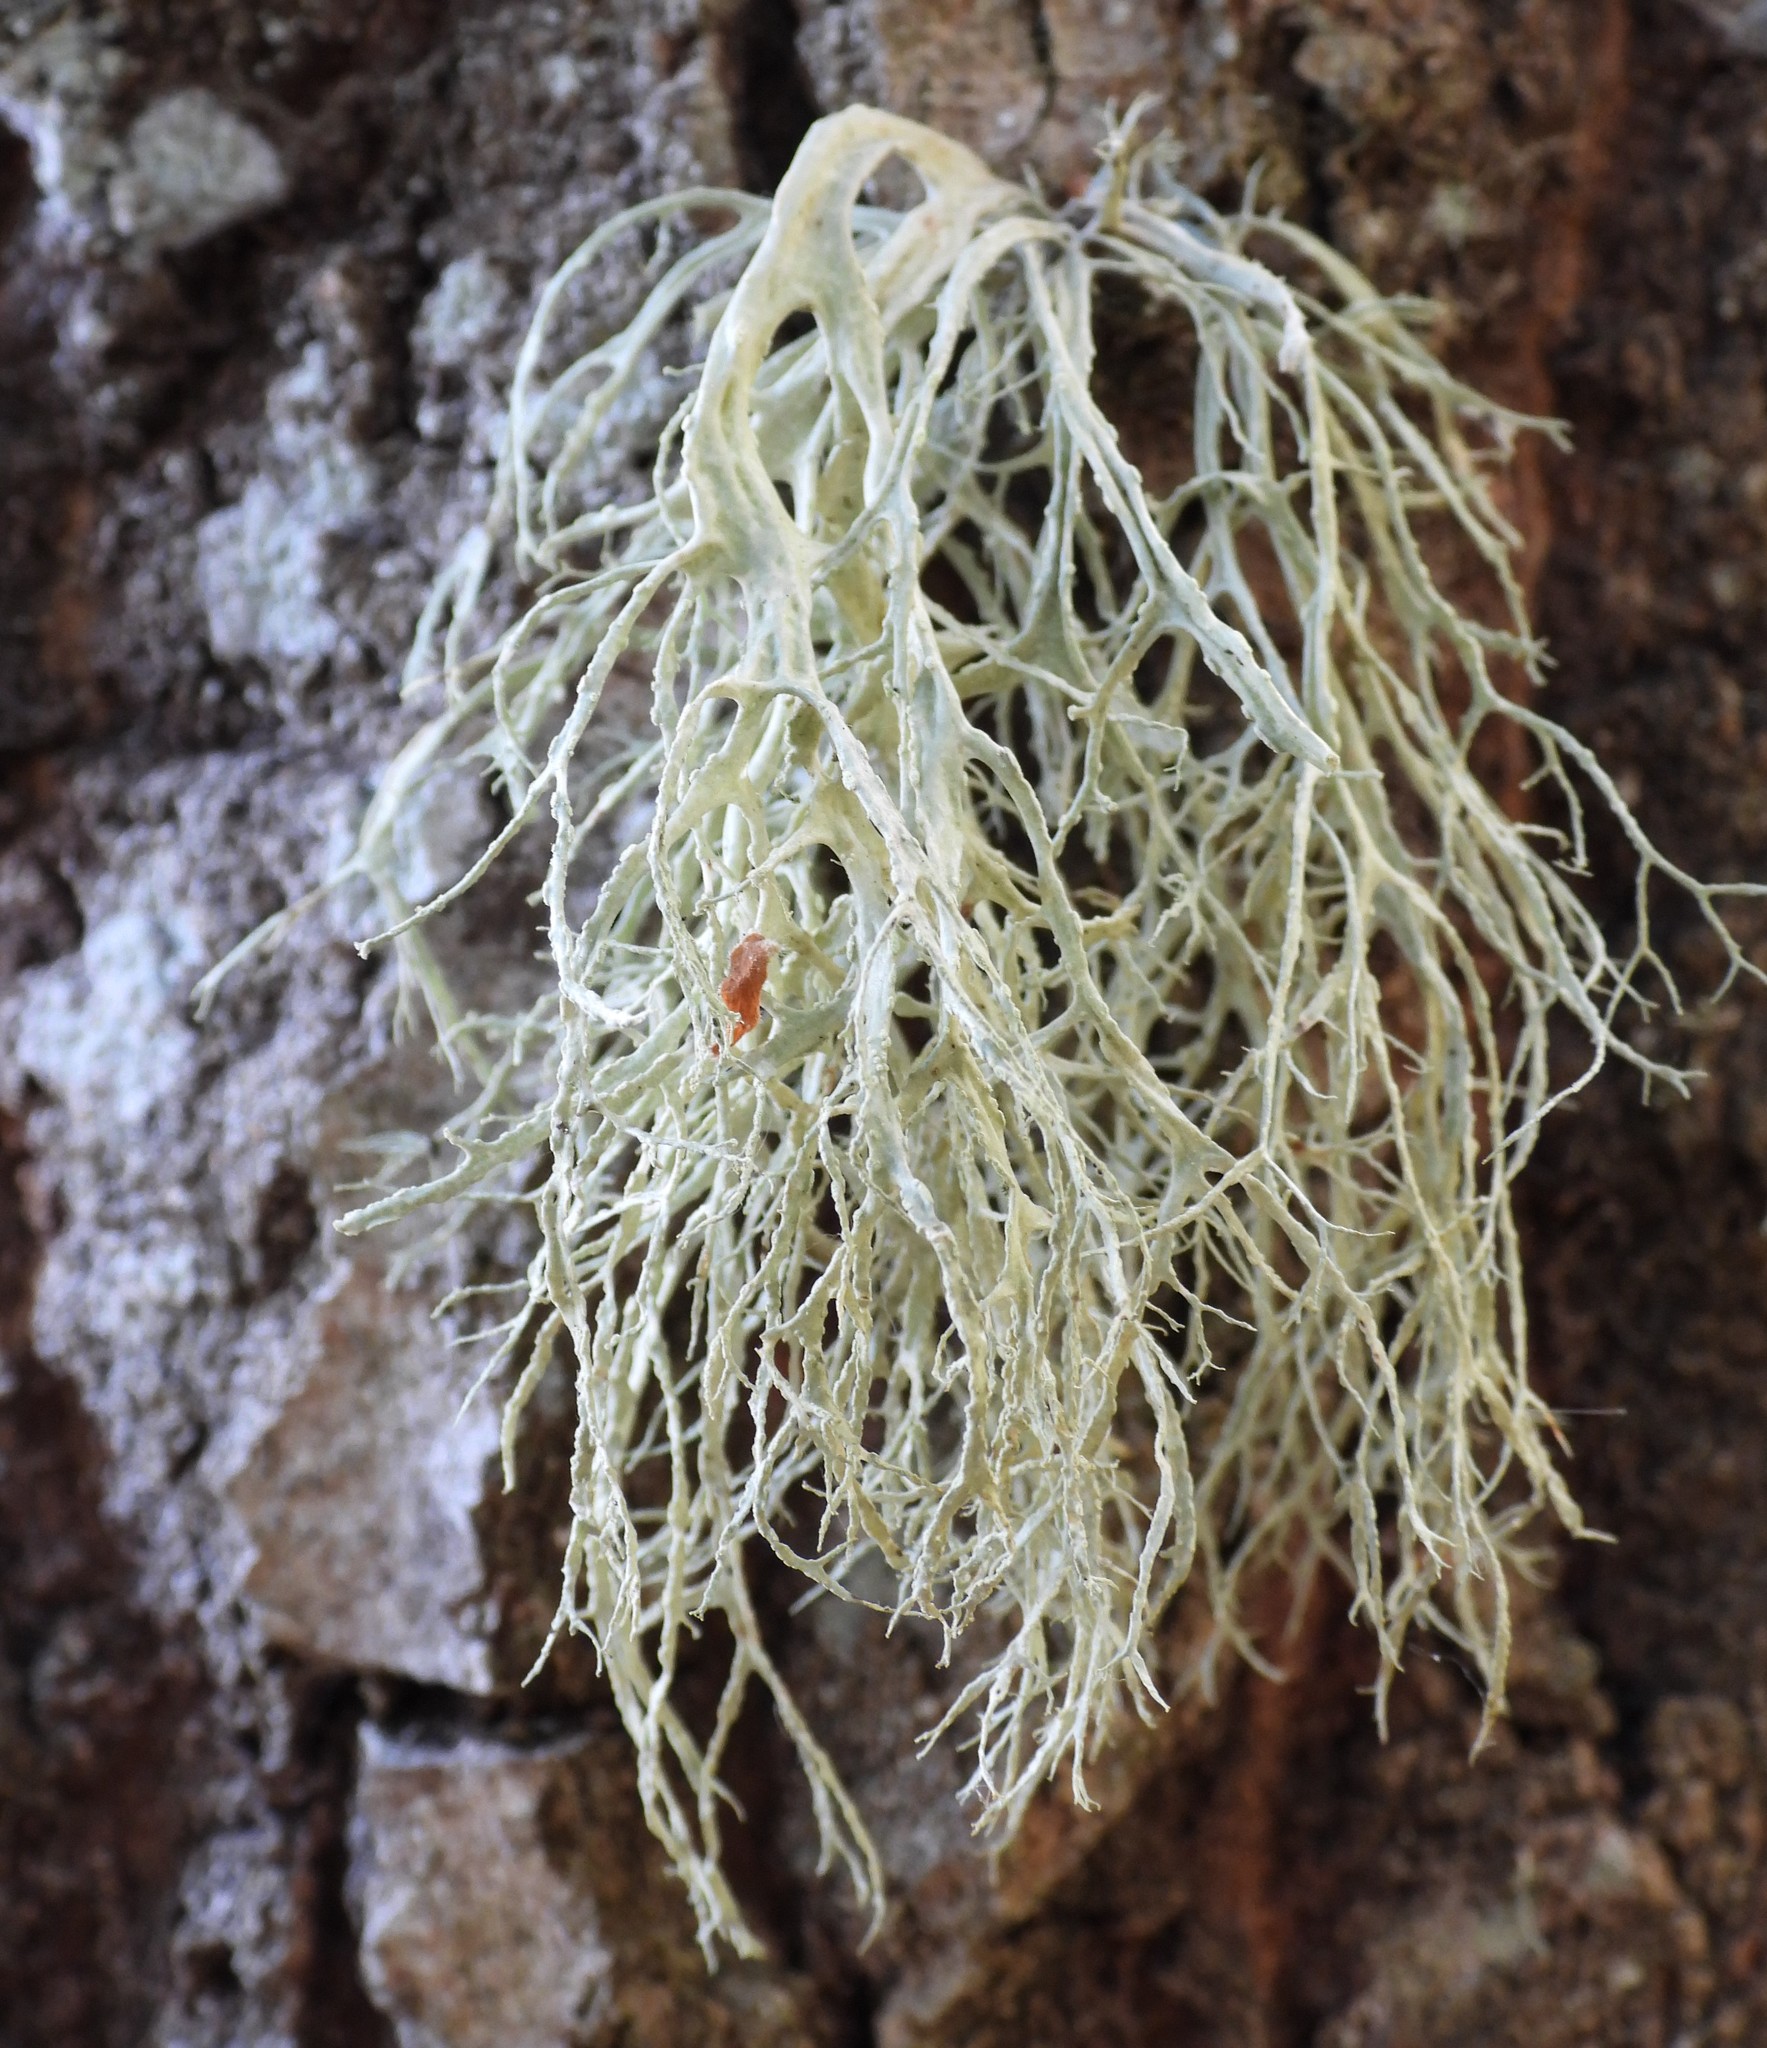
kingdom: Fungi
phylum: Ascomycota
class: Lecanoromycetes
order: Lecanorales
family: Ramalinaceae
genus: Ramalina
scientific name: Ramalina farinacea
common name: Farinose cartilage lichen
